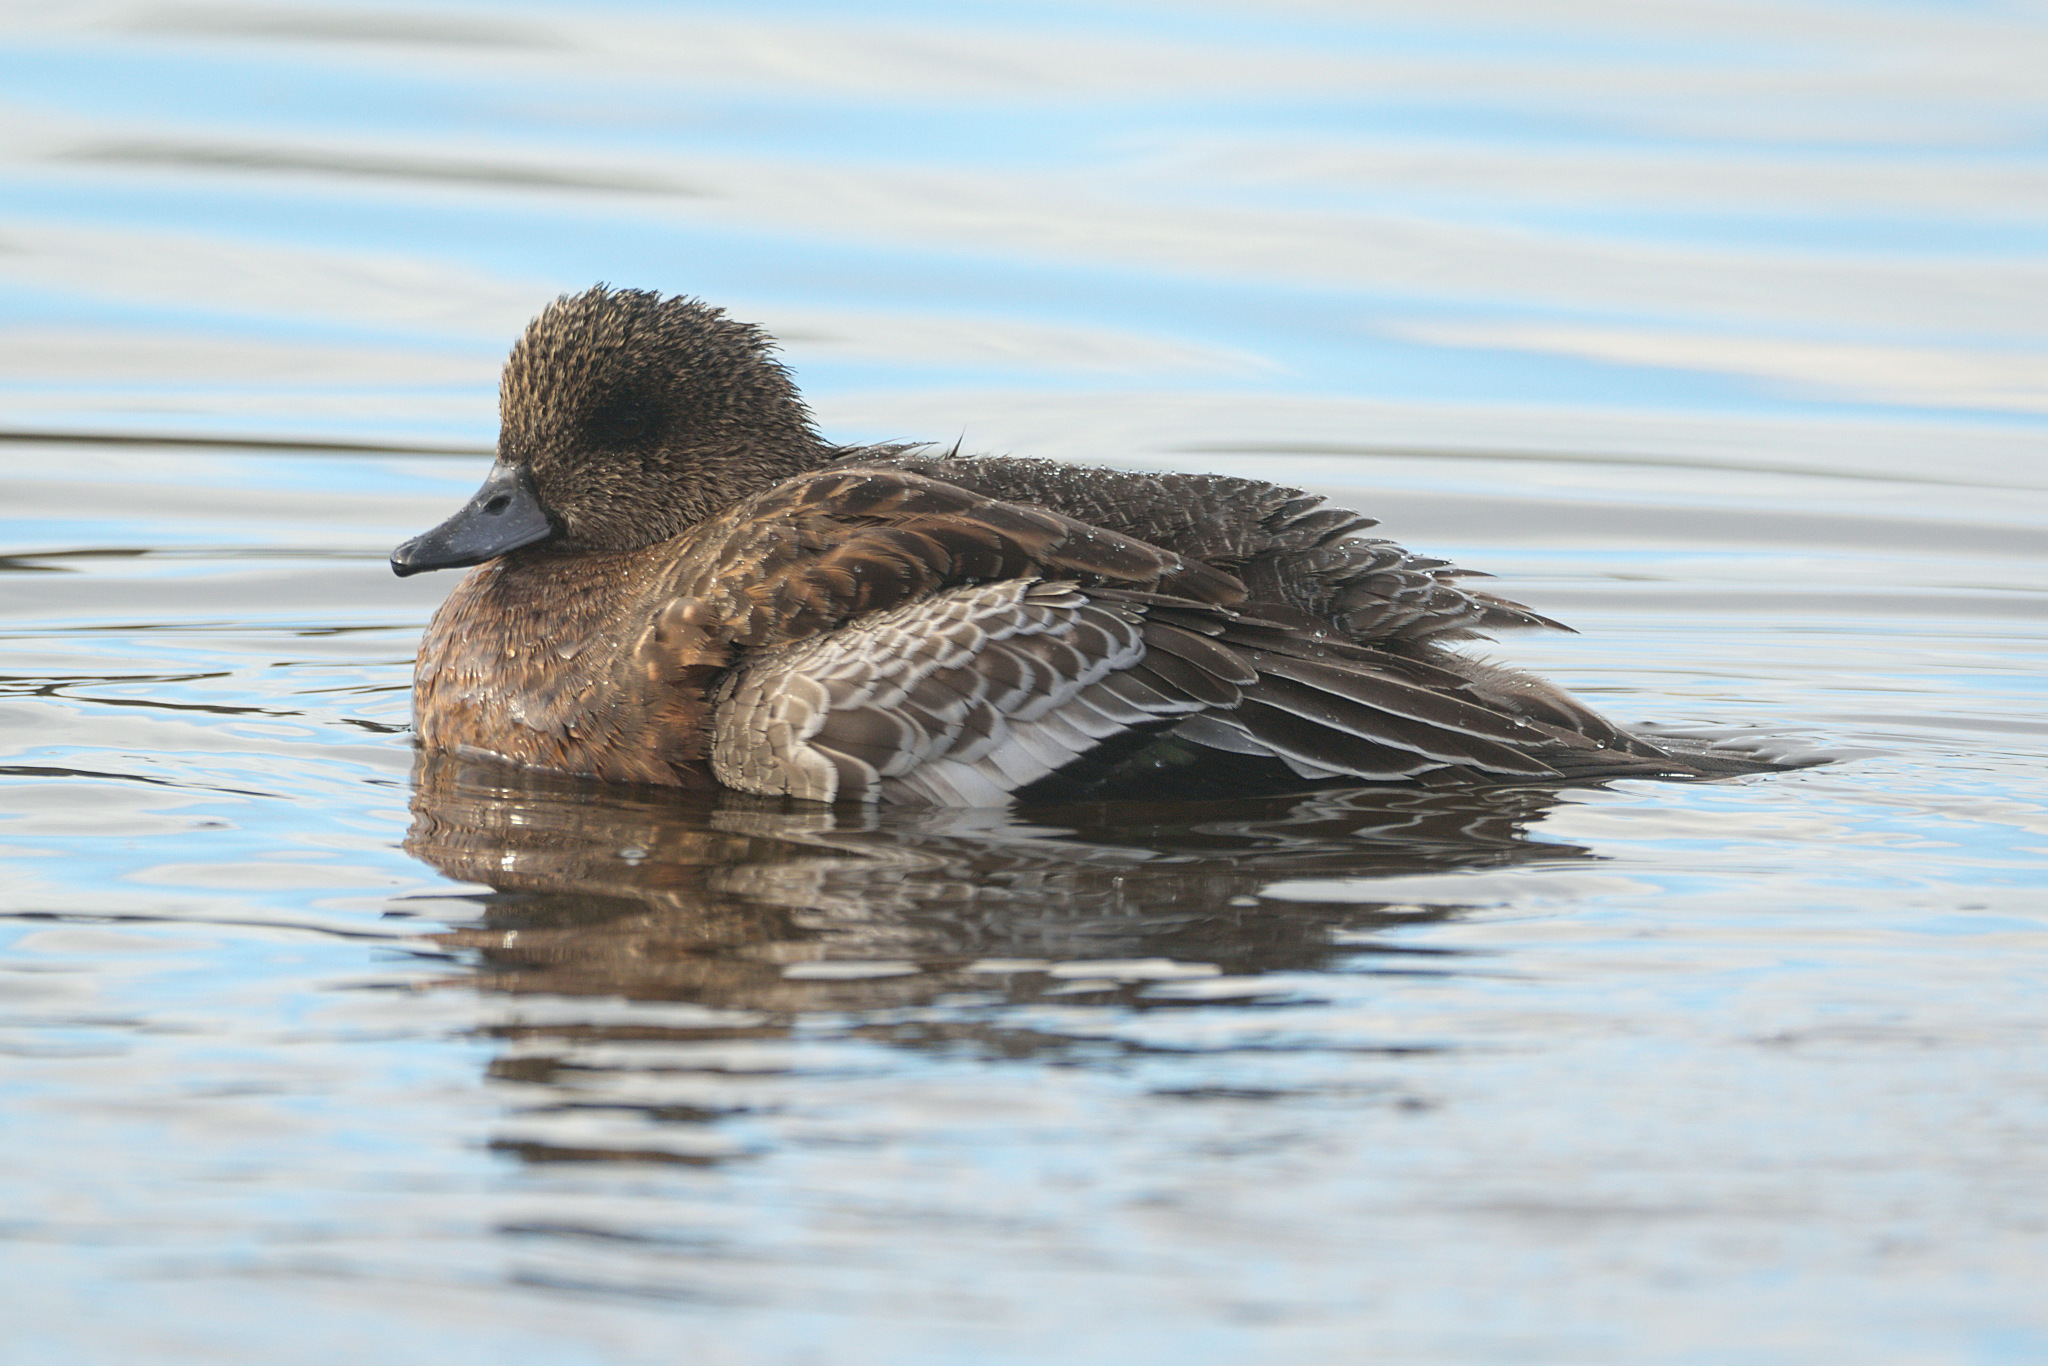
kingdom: Animalia
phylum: Chordata
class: Aves
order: Anseriformes
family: Anatidae
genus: Mareca
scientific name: Mareca americana
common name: American wigeon
